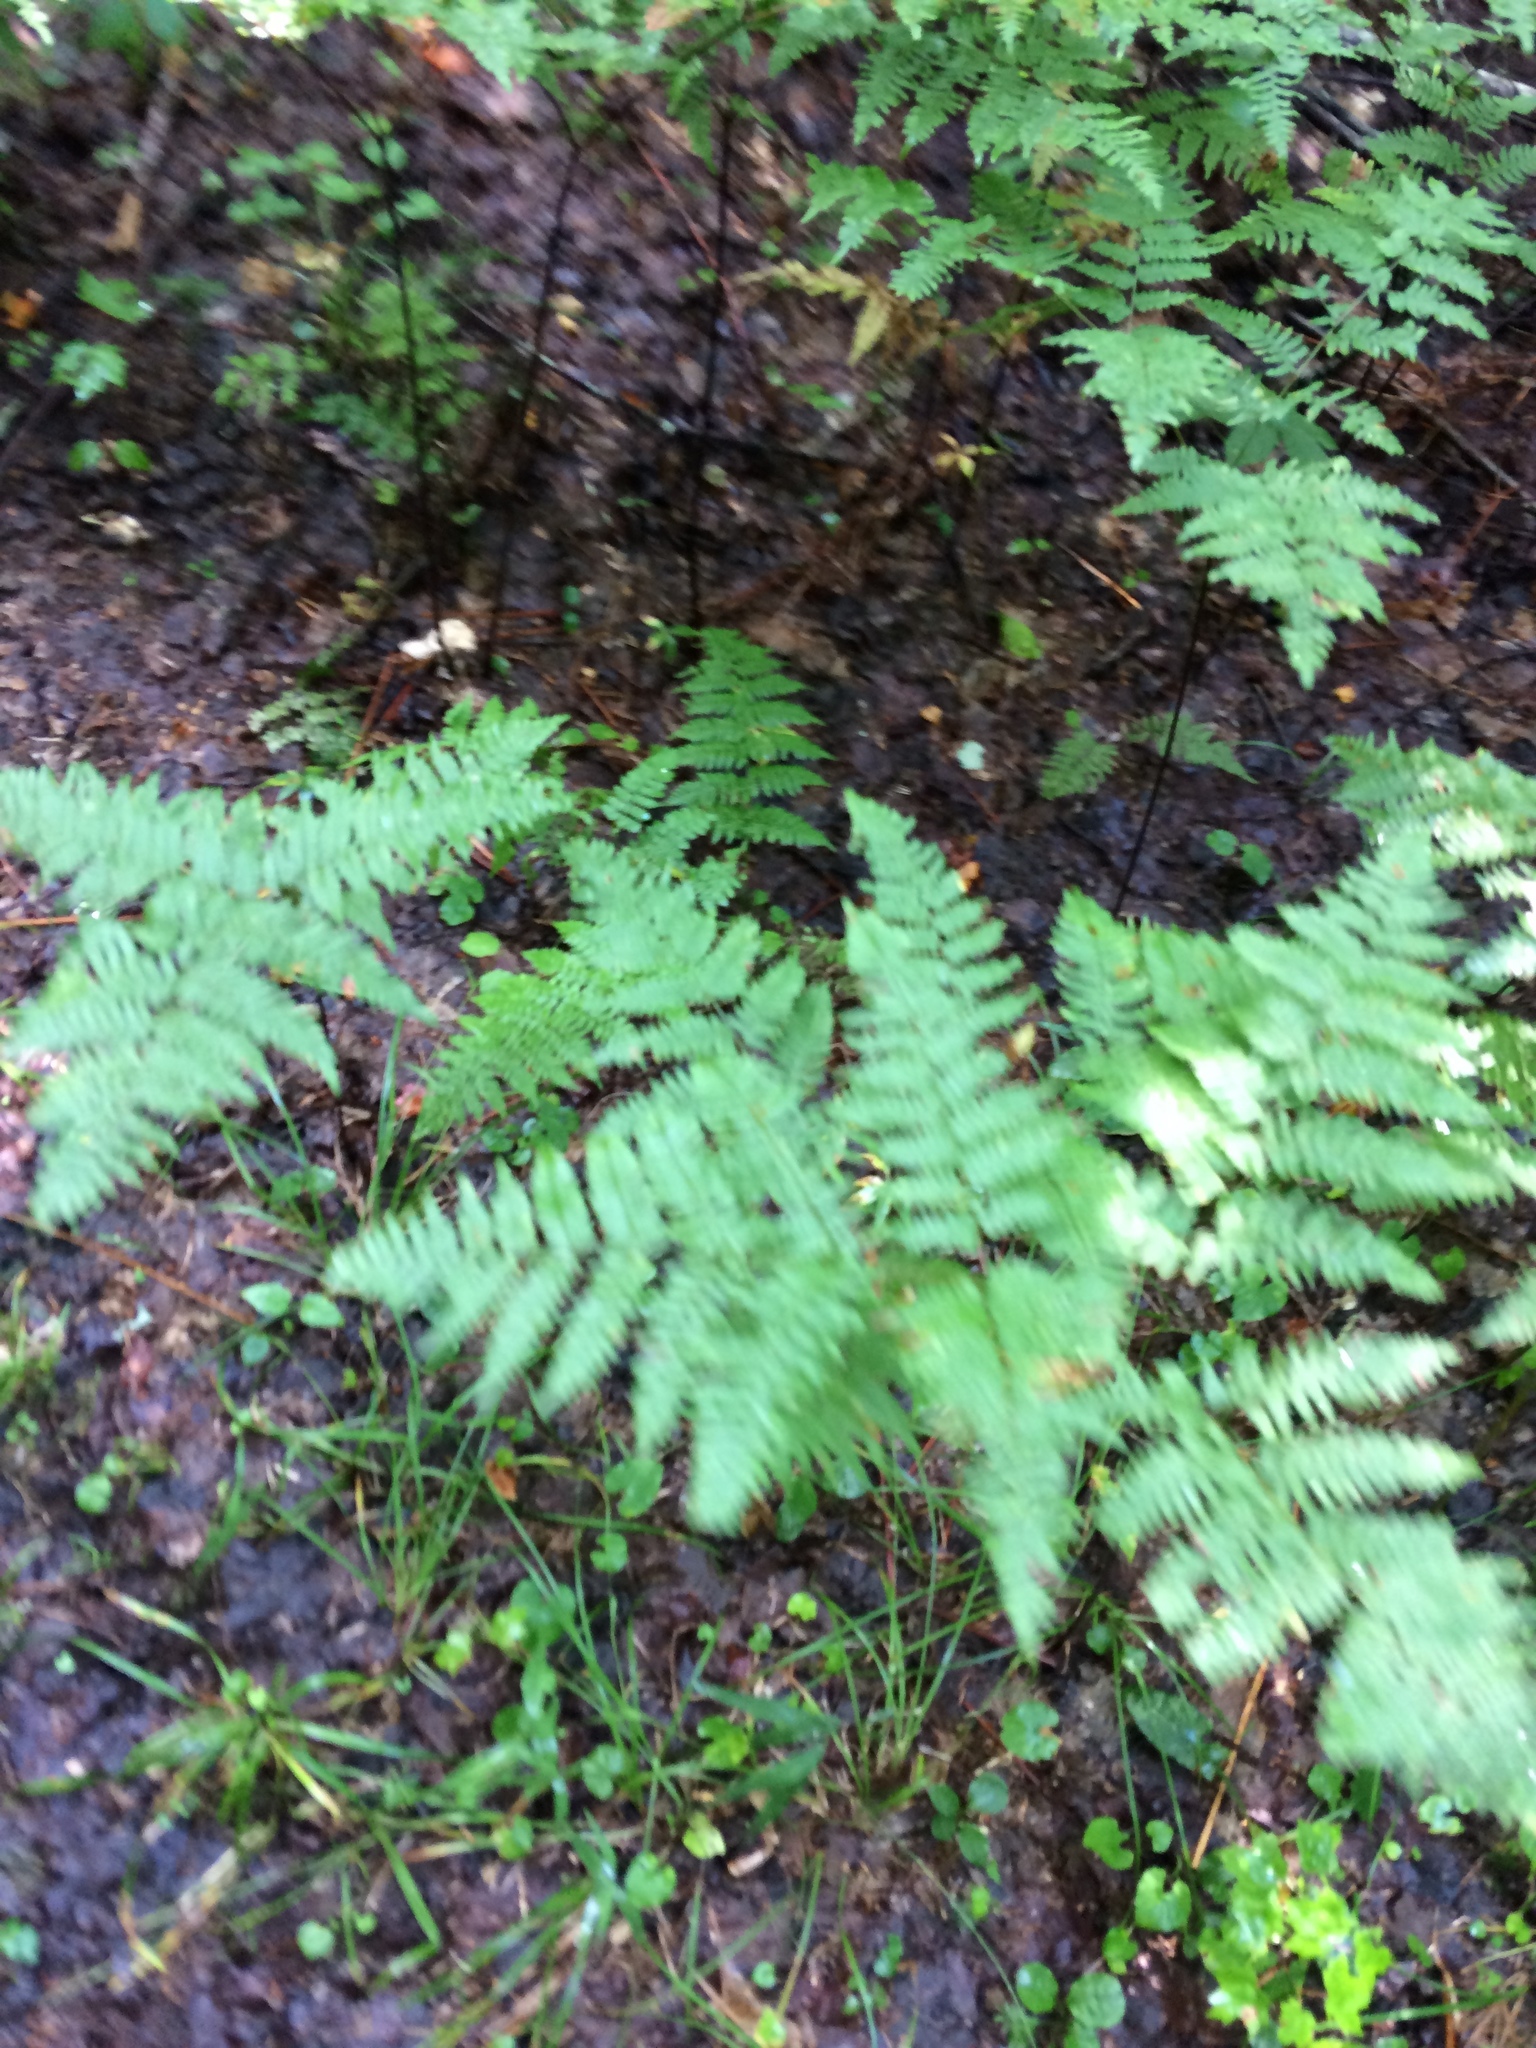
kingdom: Plantae
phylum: Tracheophyta
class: Polypodiopsida
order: Polypodiales
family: Dennstaedtiaceae
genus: Pteridium
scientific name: Pteridium aquilinum
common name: Bracken
